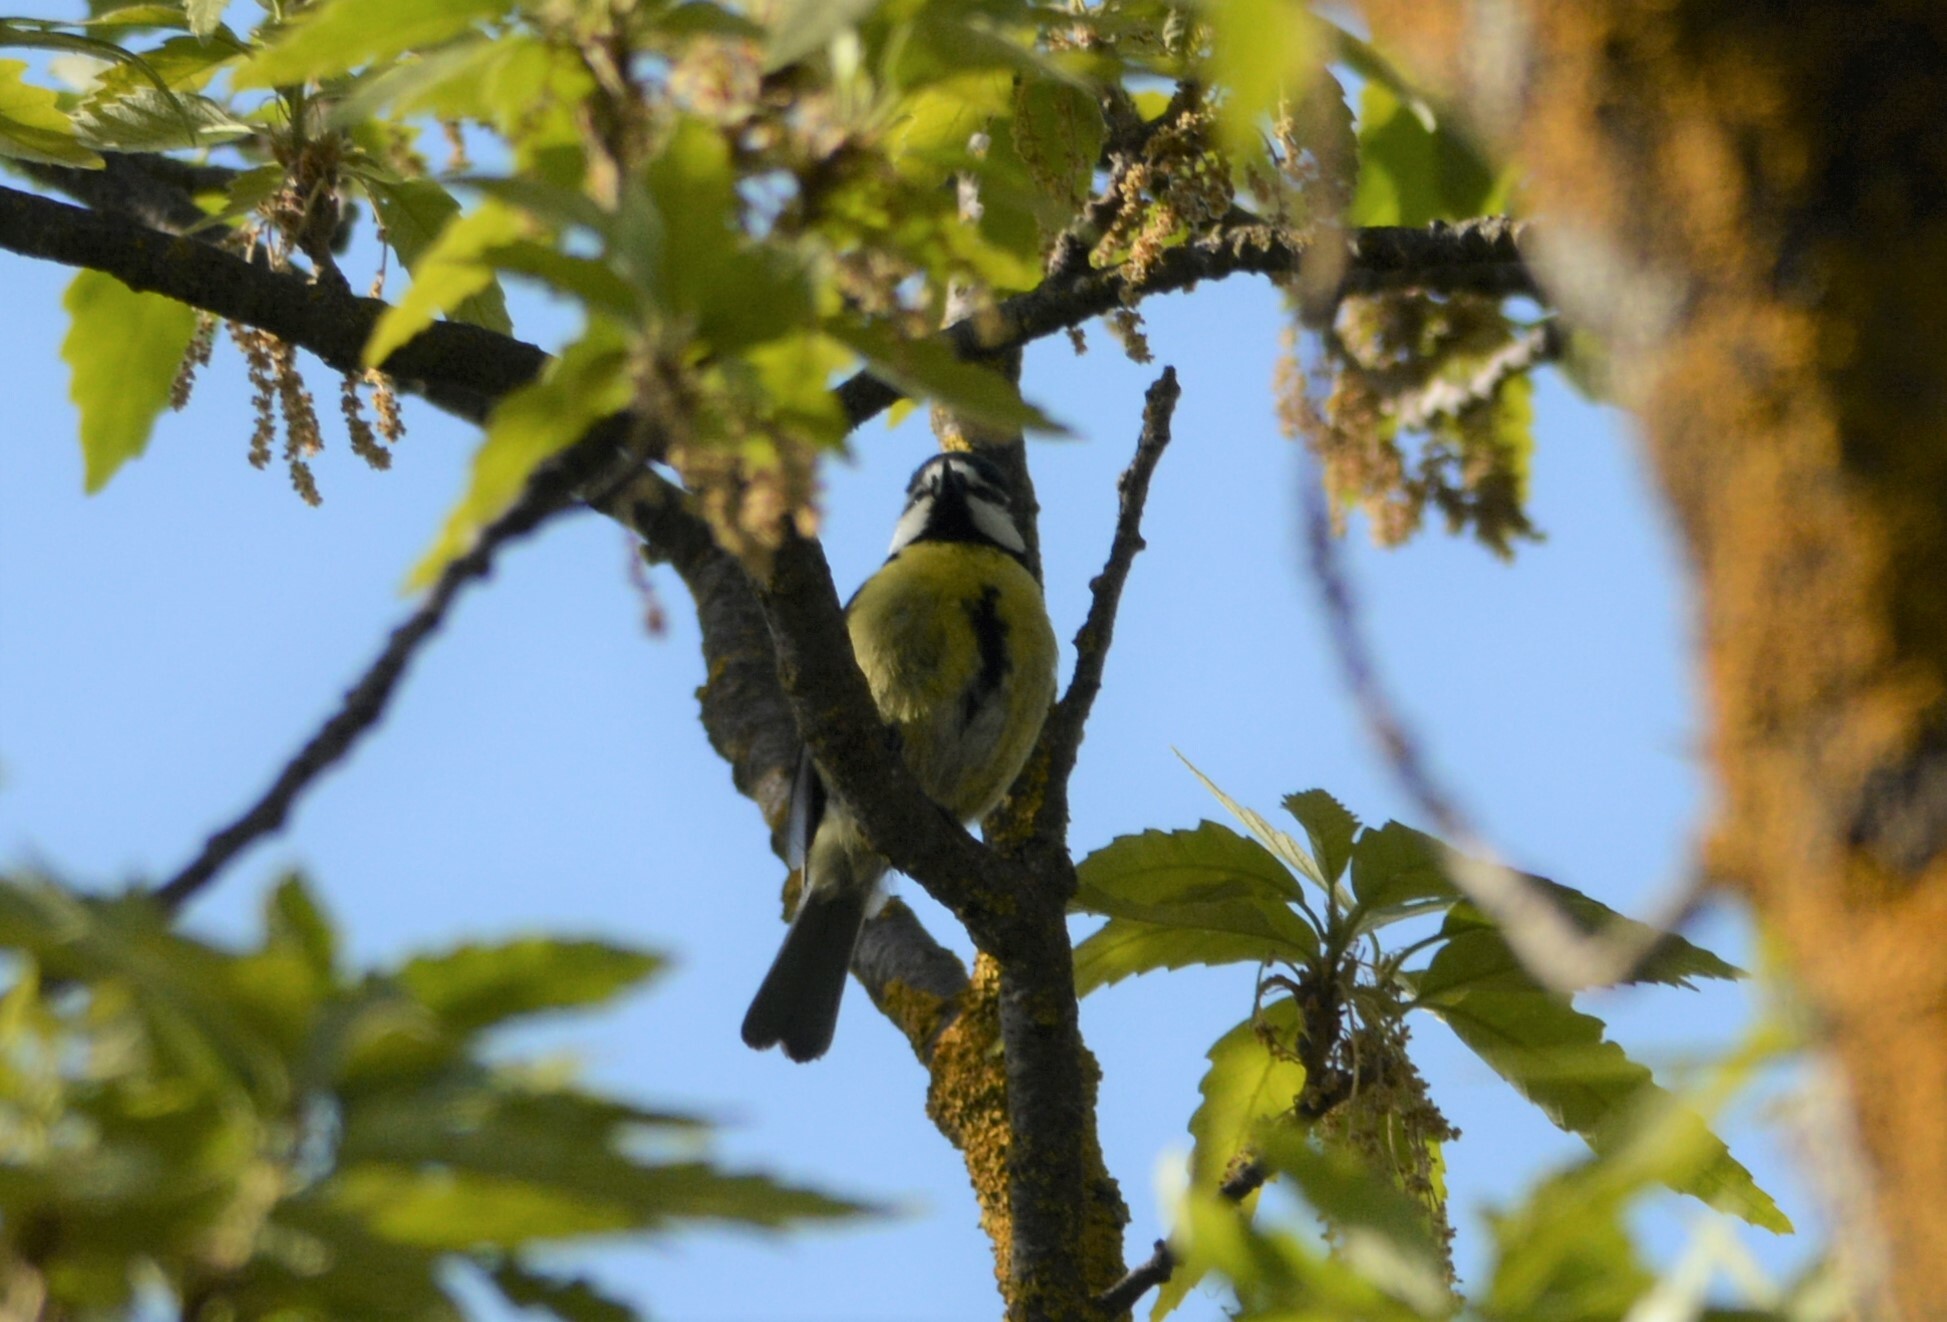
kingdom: Animalia
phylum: Chordata
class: Aves
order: Passeriformes
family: Paridae
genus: Cyanistes
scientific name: Cyanistes teneriffae
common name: African blue tit
